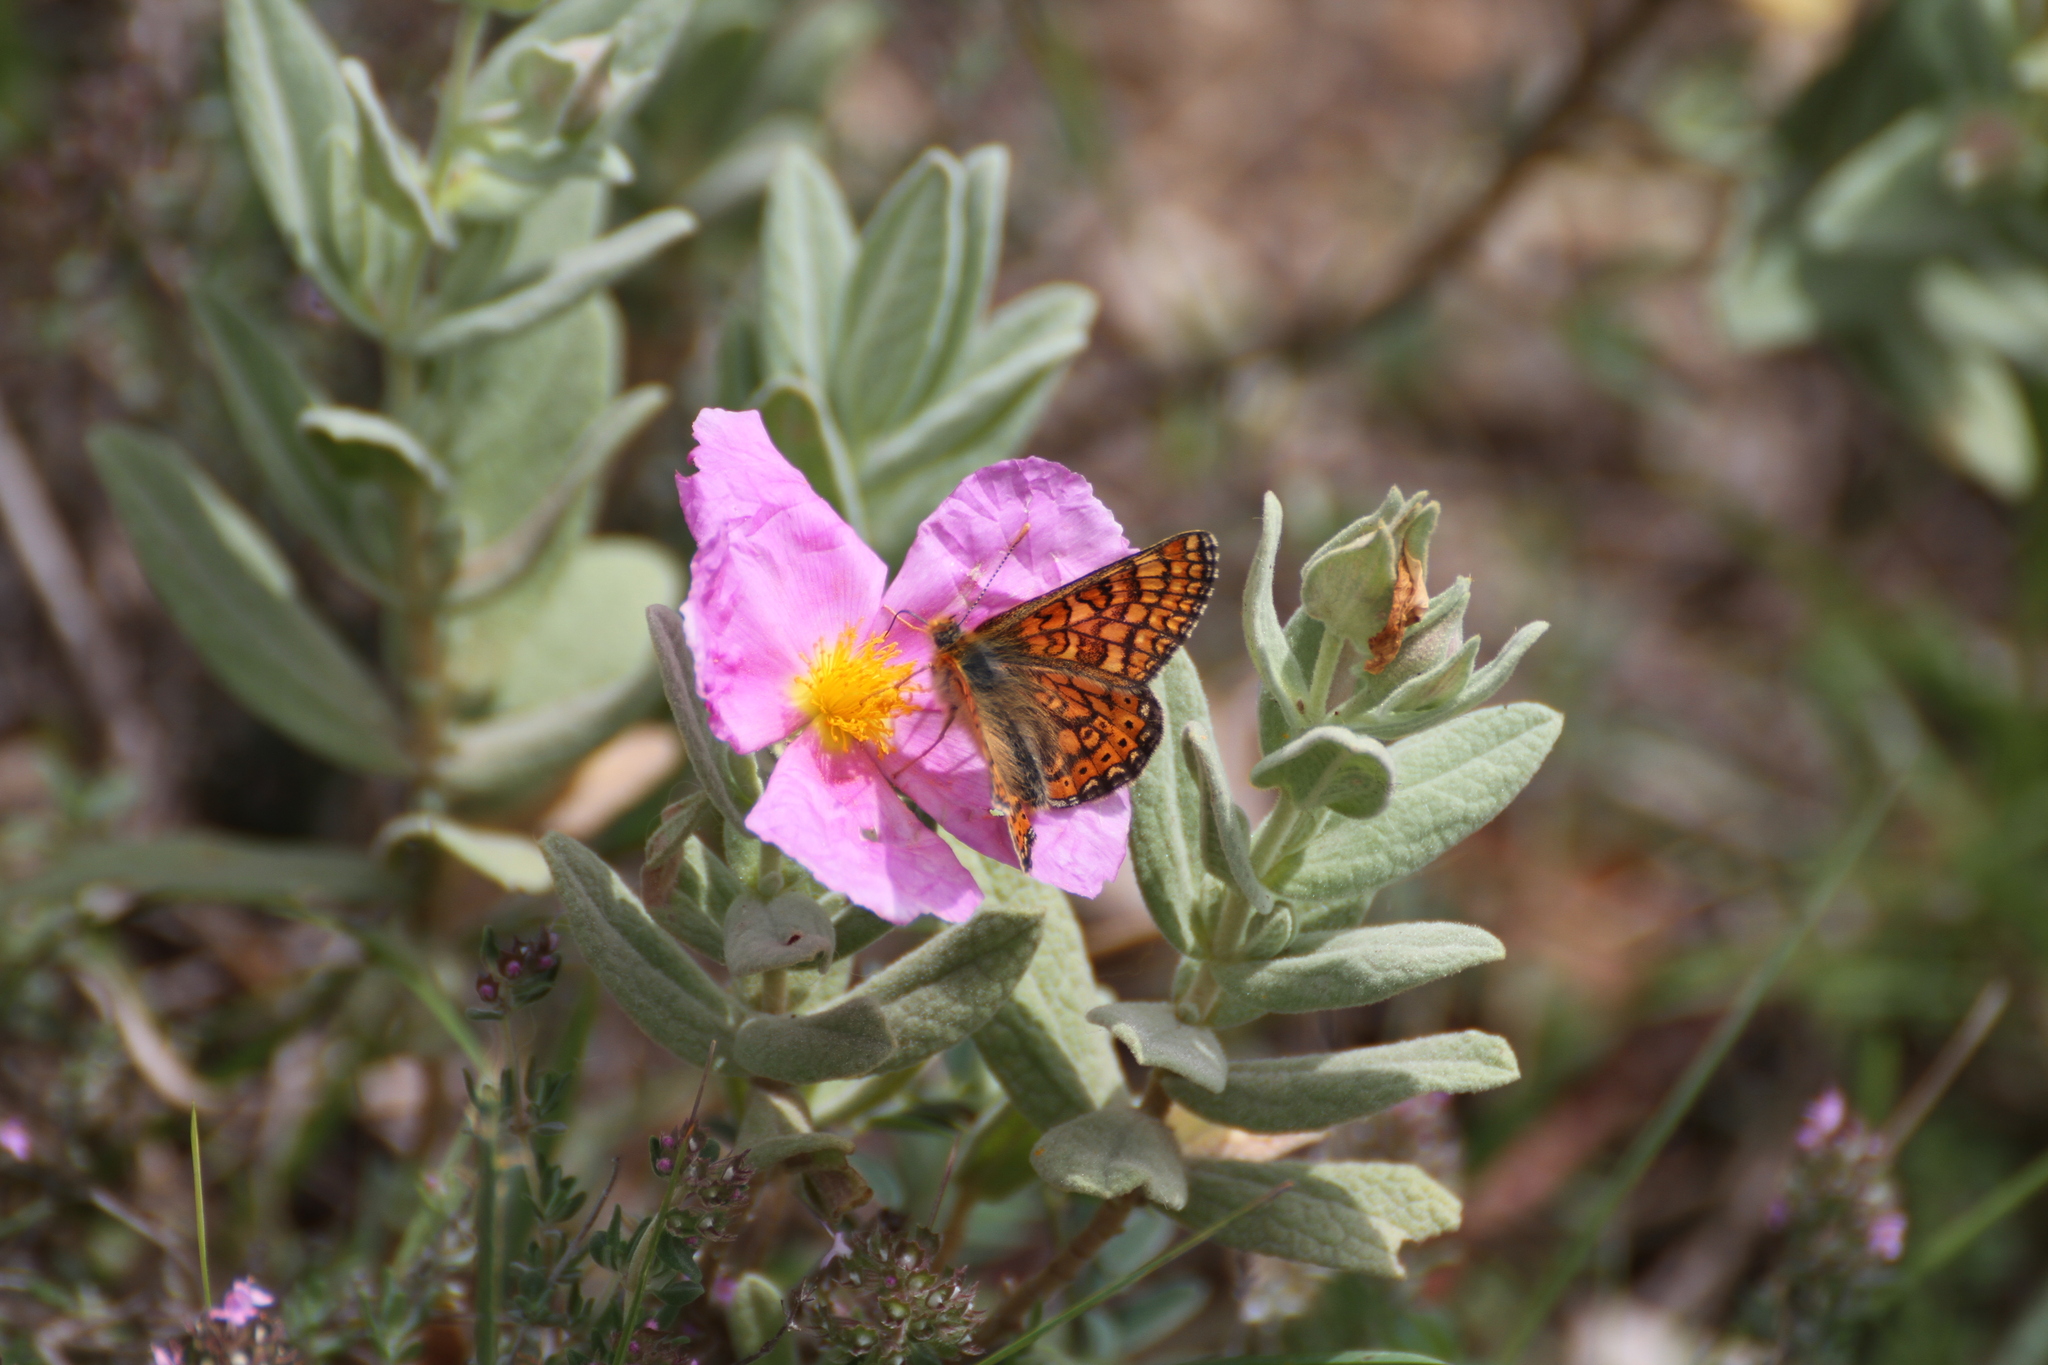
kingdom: Animalia
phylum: Arthropoda
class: Insecta
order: Lepidoptera
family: Nymphalidae
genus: Euphydryas
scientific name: Euphydryas aurinia
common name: Marsh fritillary
